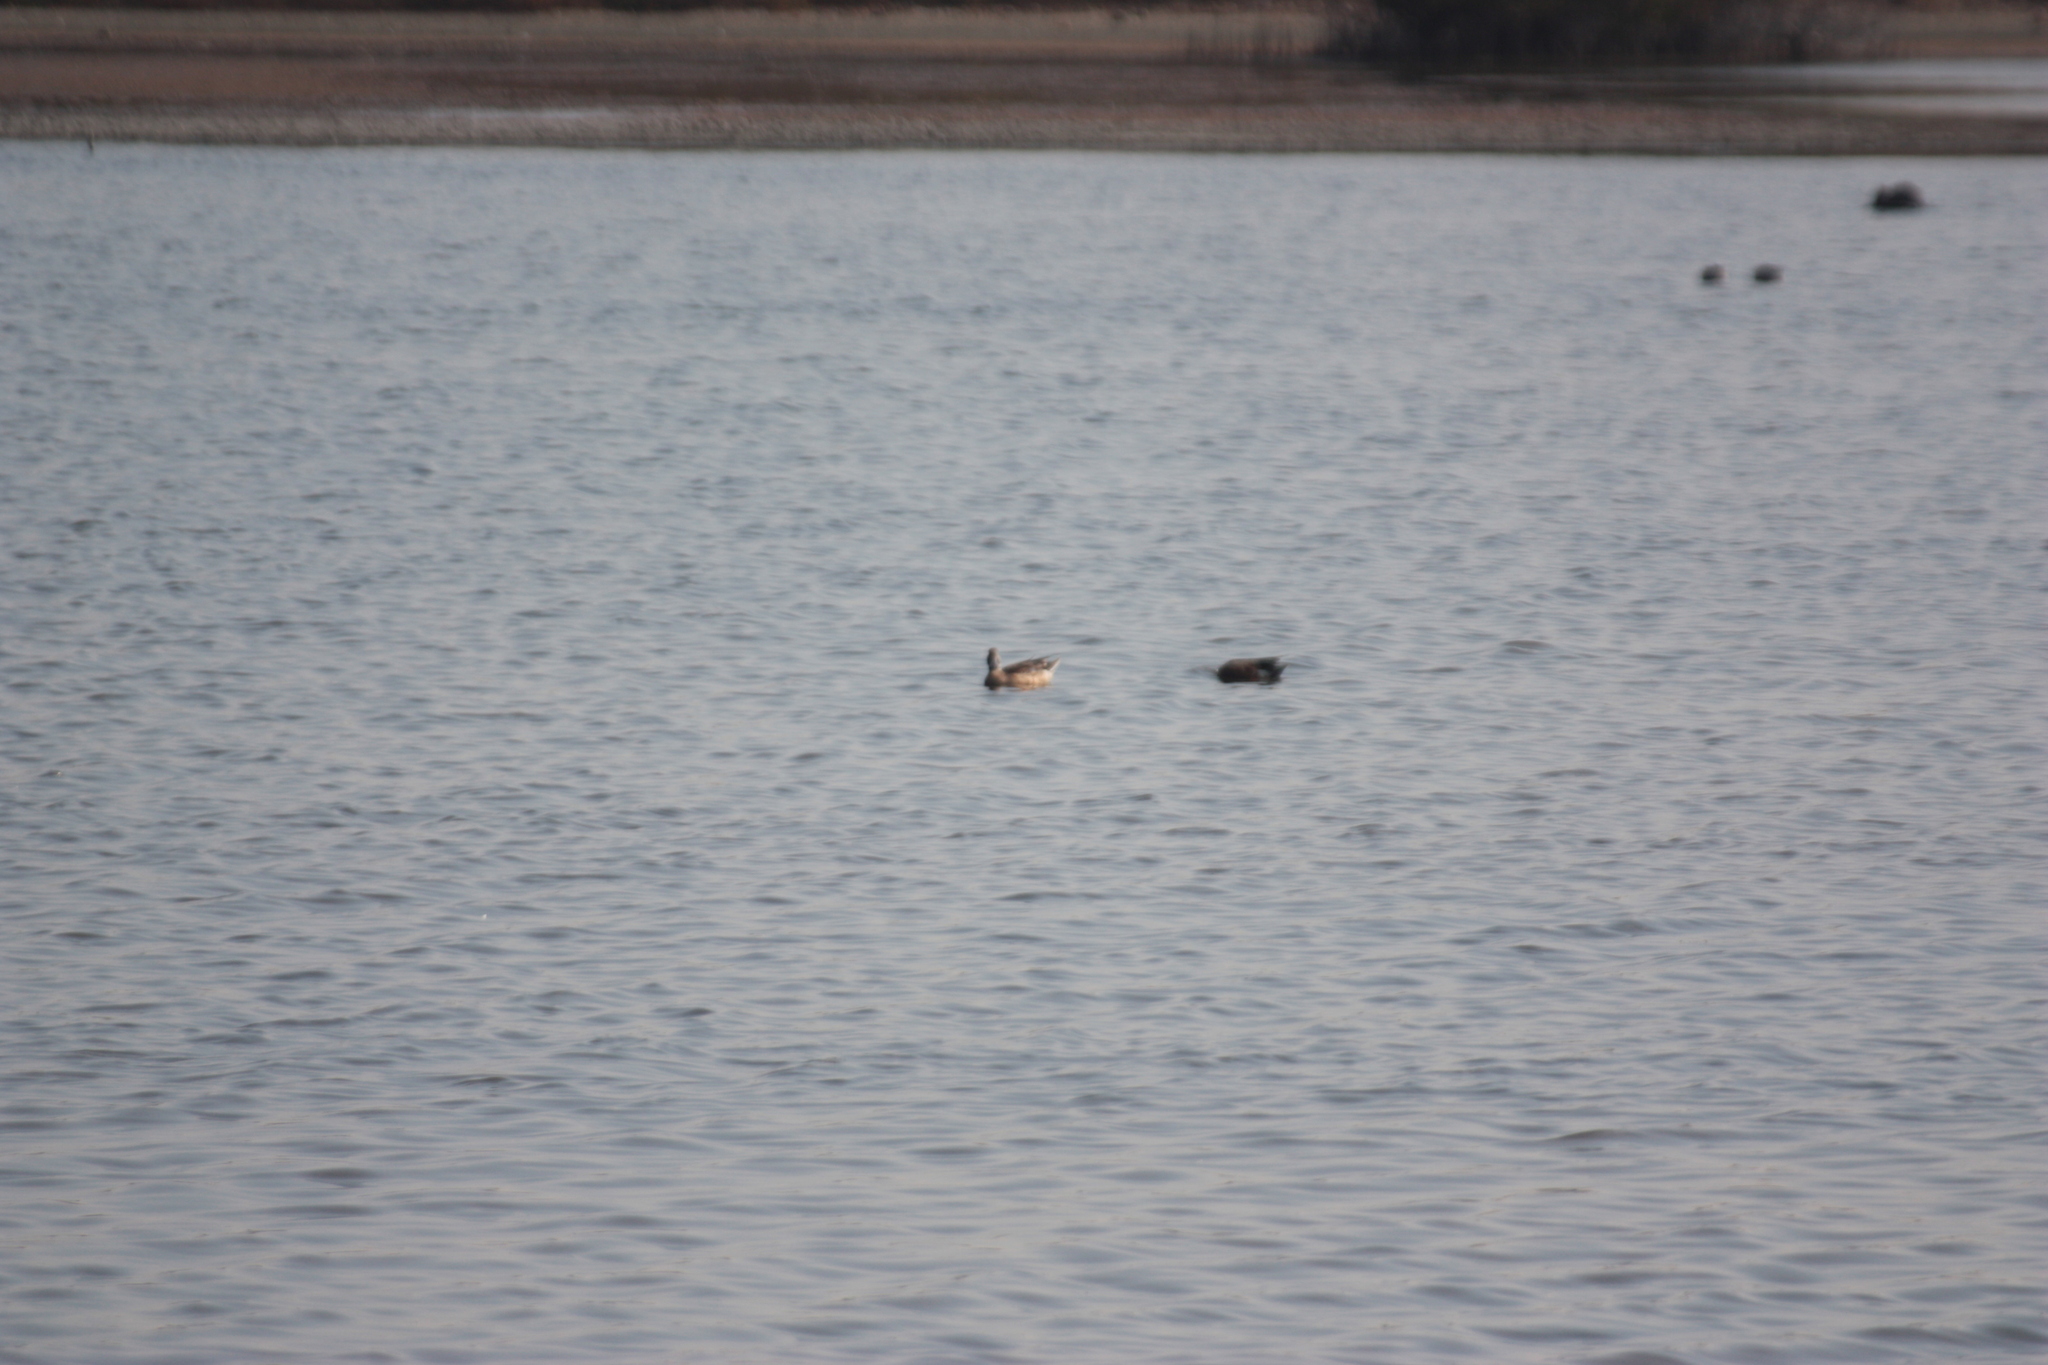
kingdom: Animalia
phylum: Chordata
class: Aves
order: Anseriformes
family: Anatidae
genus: Spatula
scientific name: Spatula clypeata
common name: Northern shoveler
